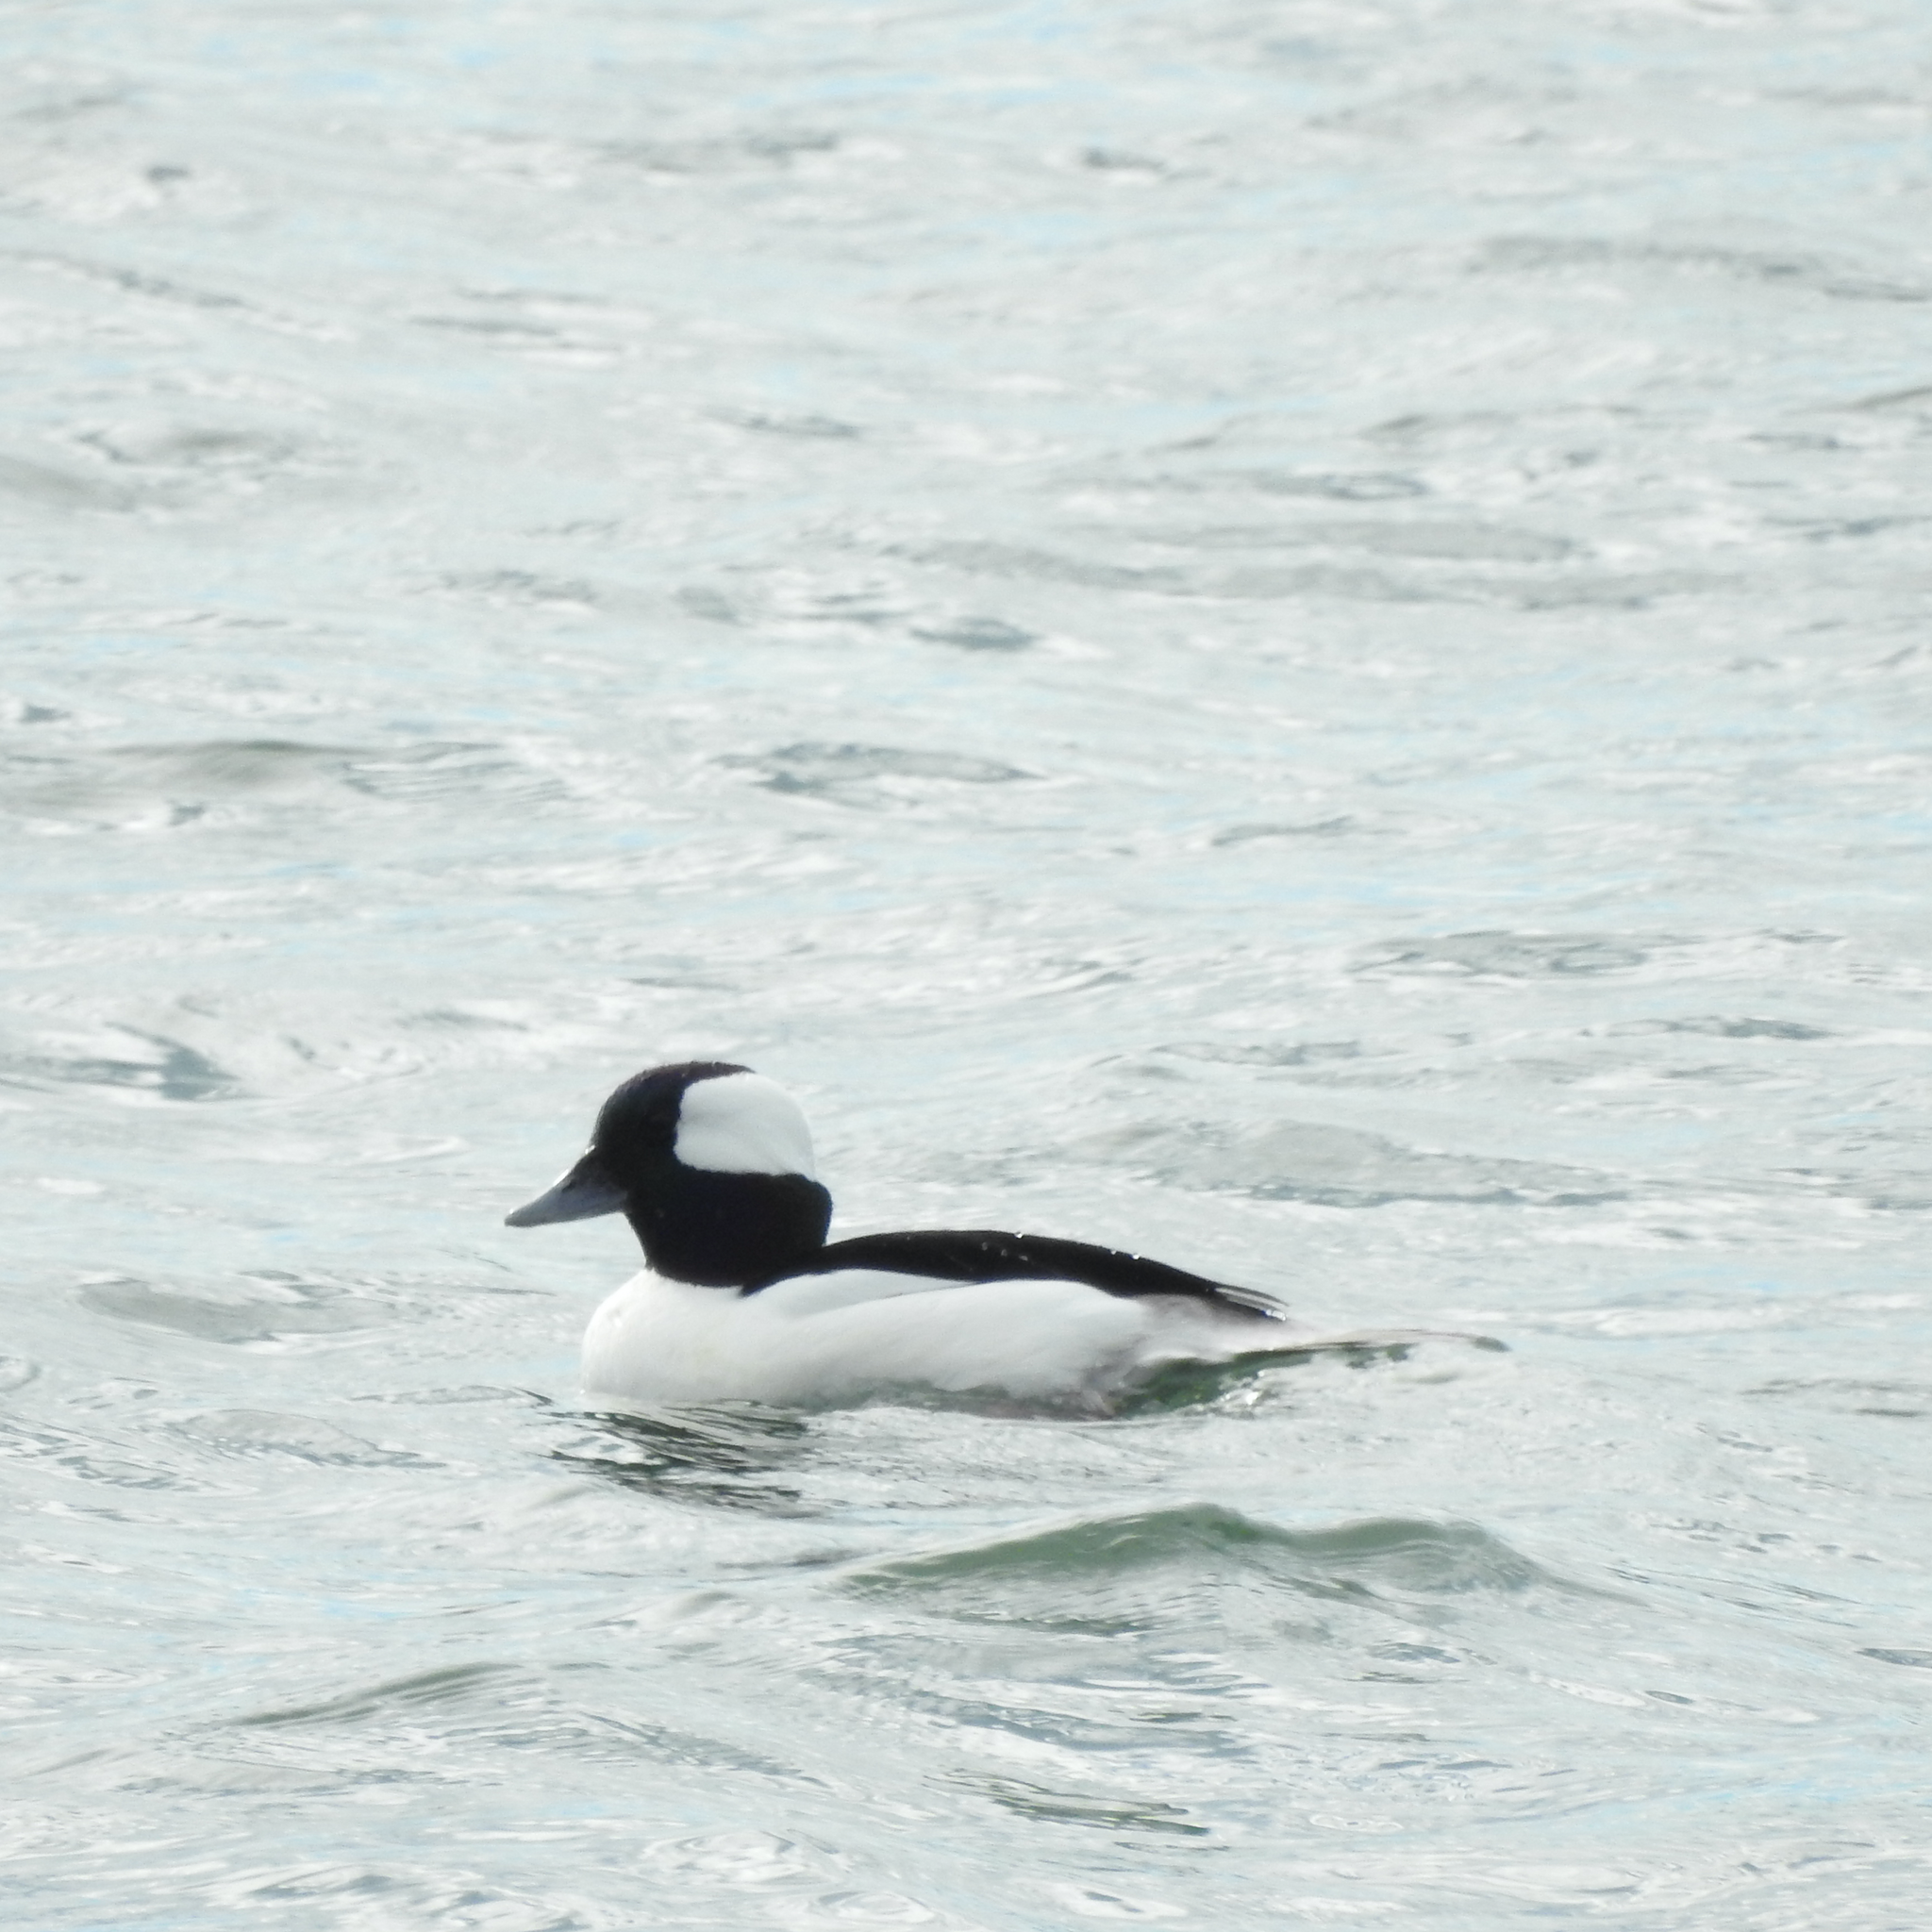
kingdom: Animalia
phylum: Chordata
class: Aves
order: Anseriformes
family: Anatidae
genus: Bucephala
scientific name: Bucephala albeola
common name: Bufflehead
